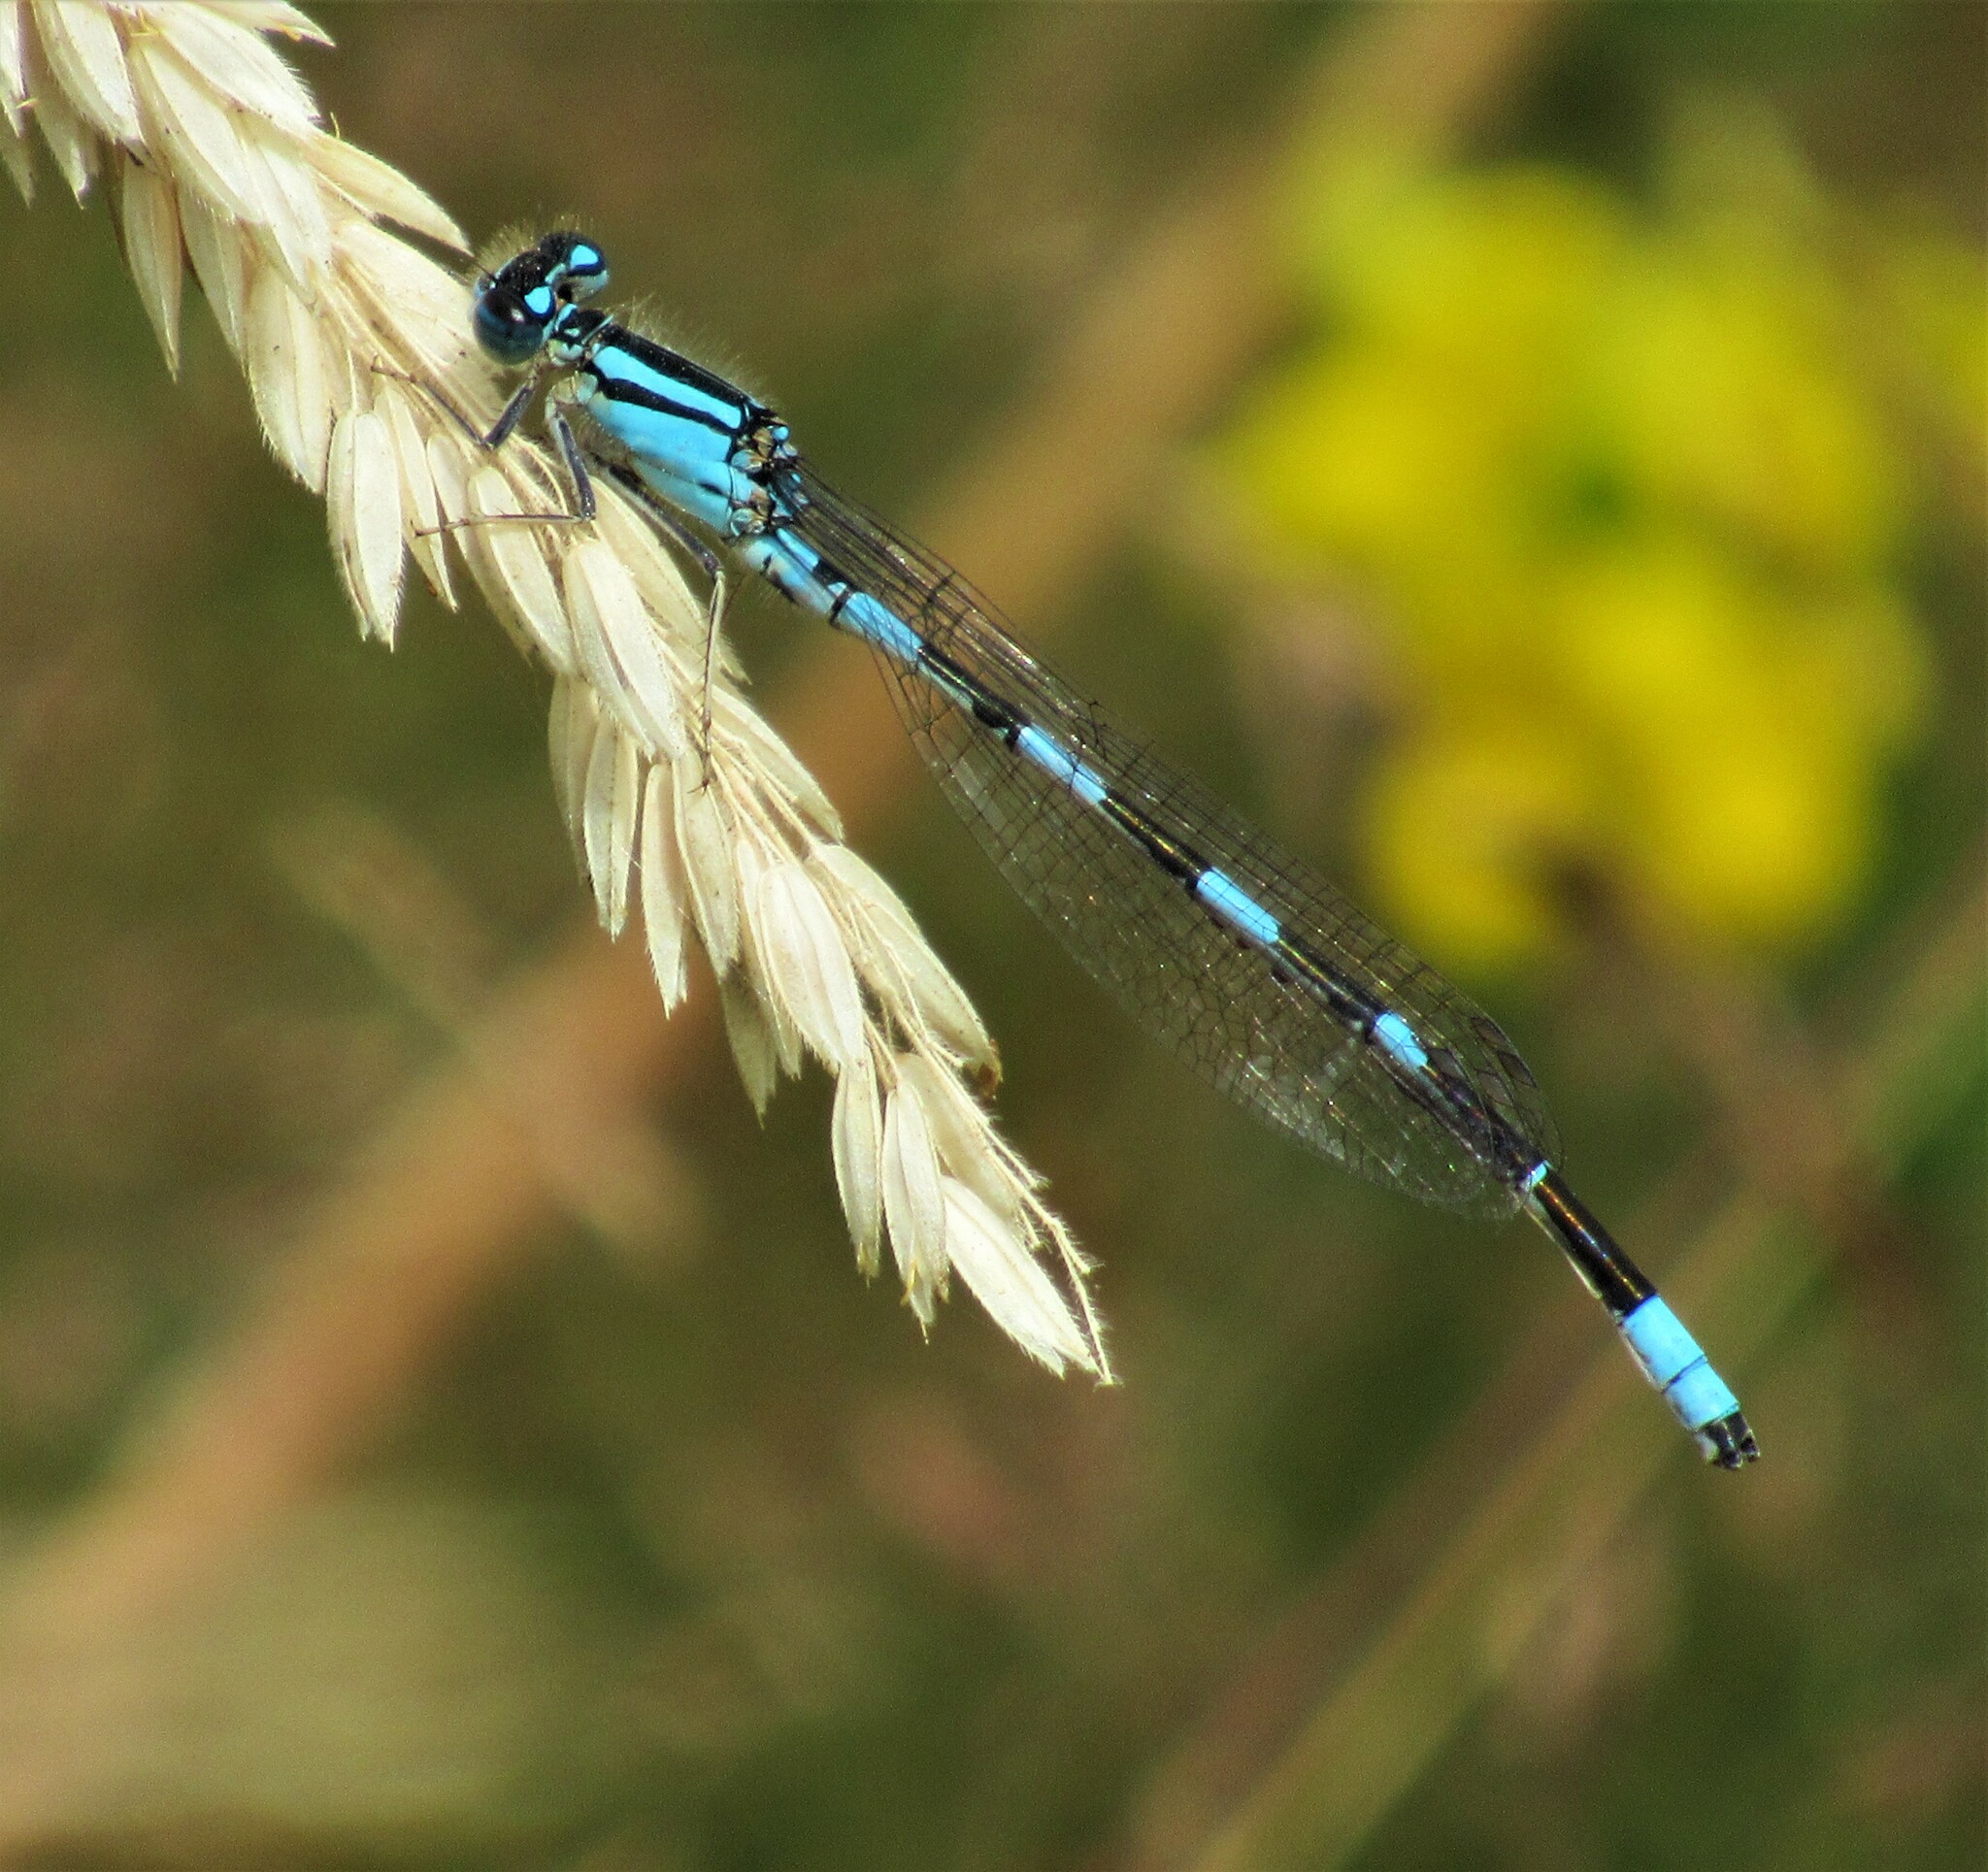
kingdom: Animalia
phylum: Arthropoda
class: Insecta
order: Odonata
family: Coenagrionidae
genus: Enallagma
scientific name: Enallagma carunculatum
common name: Tule bluet
